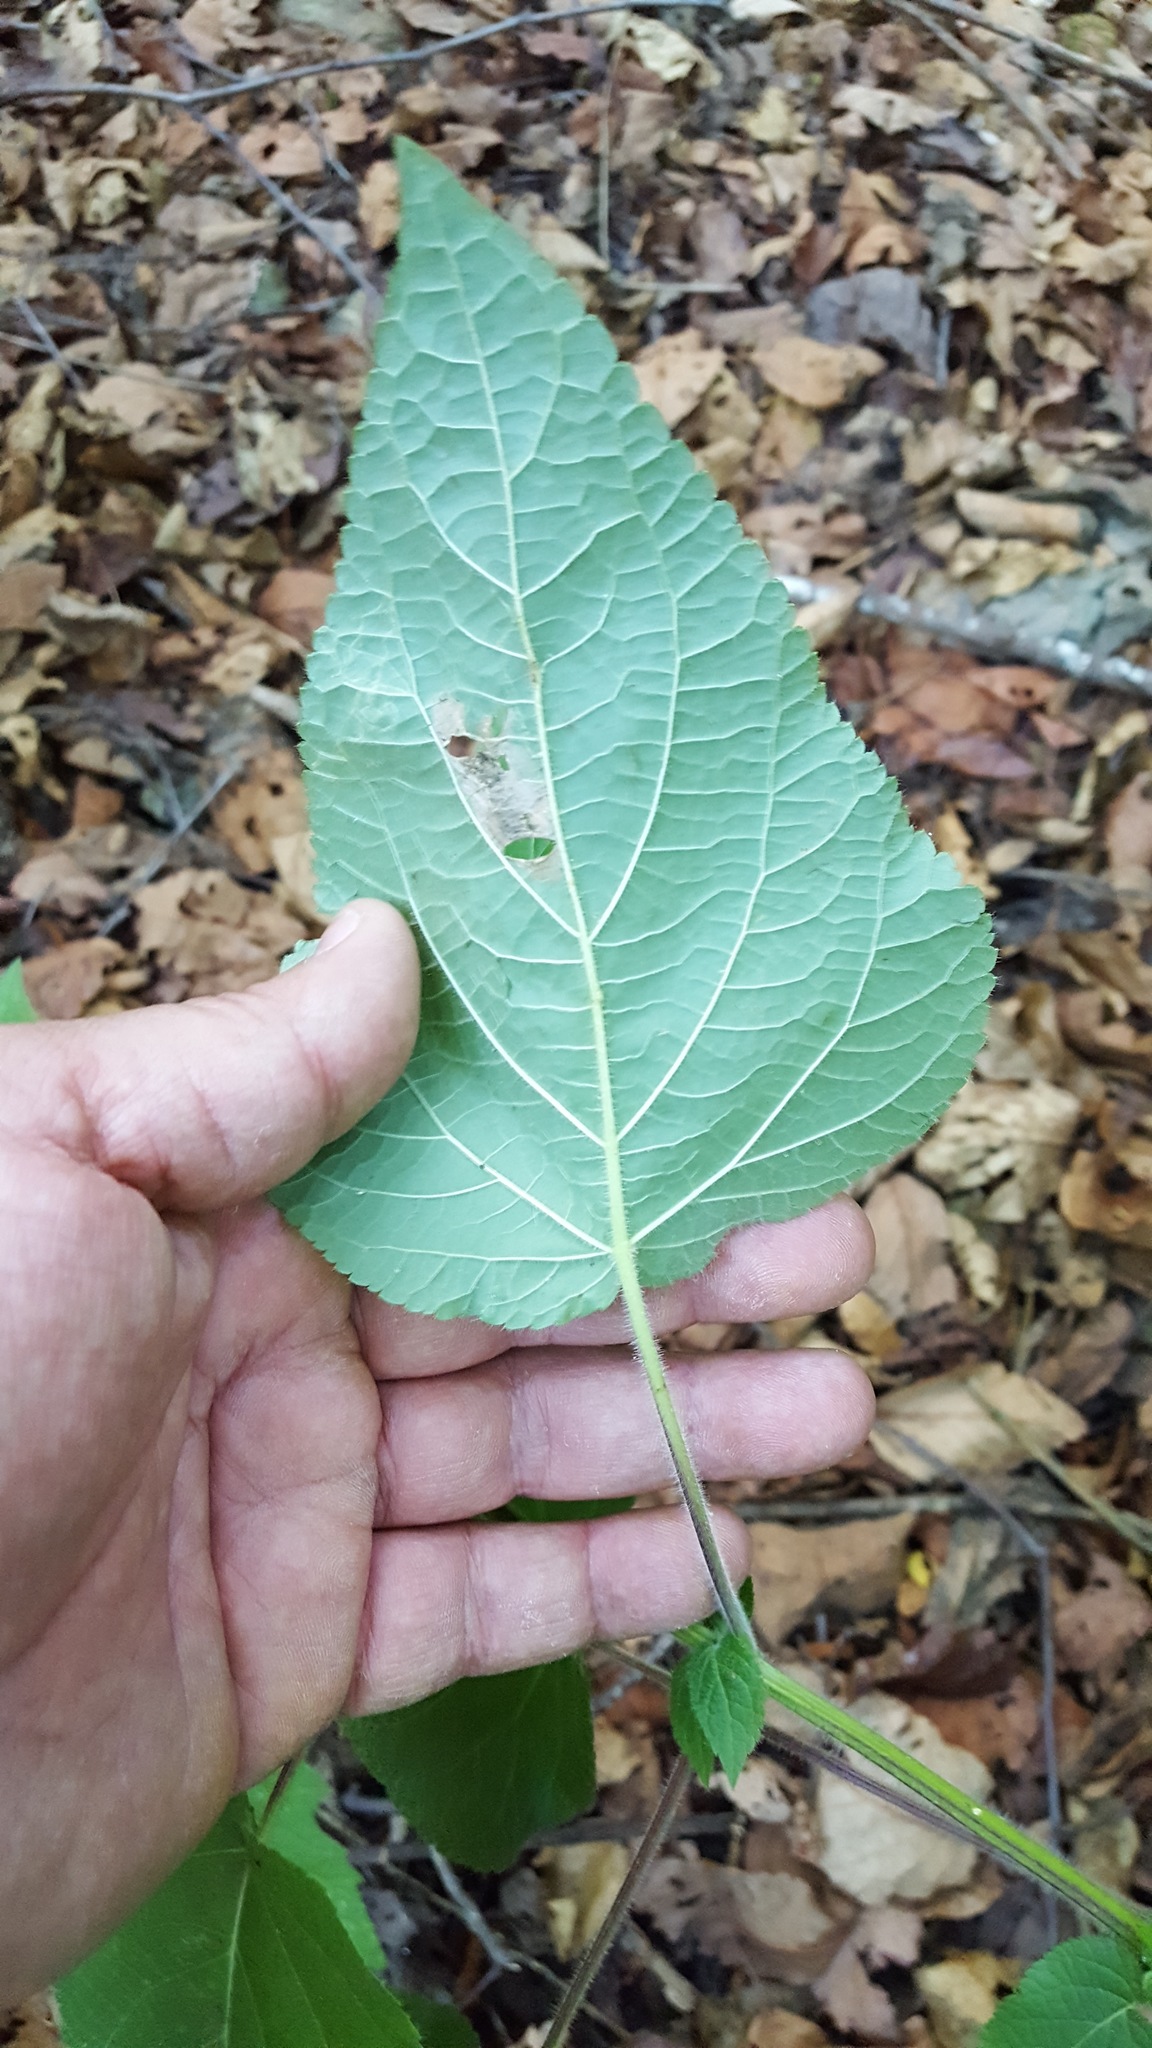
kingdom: Plantae
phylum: Tracheophyta
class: Magnoliopsida
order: Lamiales
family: Lamiaceae
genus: Salvia
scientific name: Salvia longistyla
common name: Mexican sage
